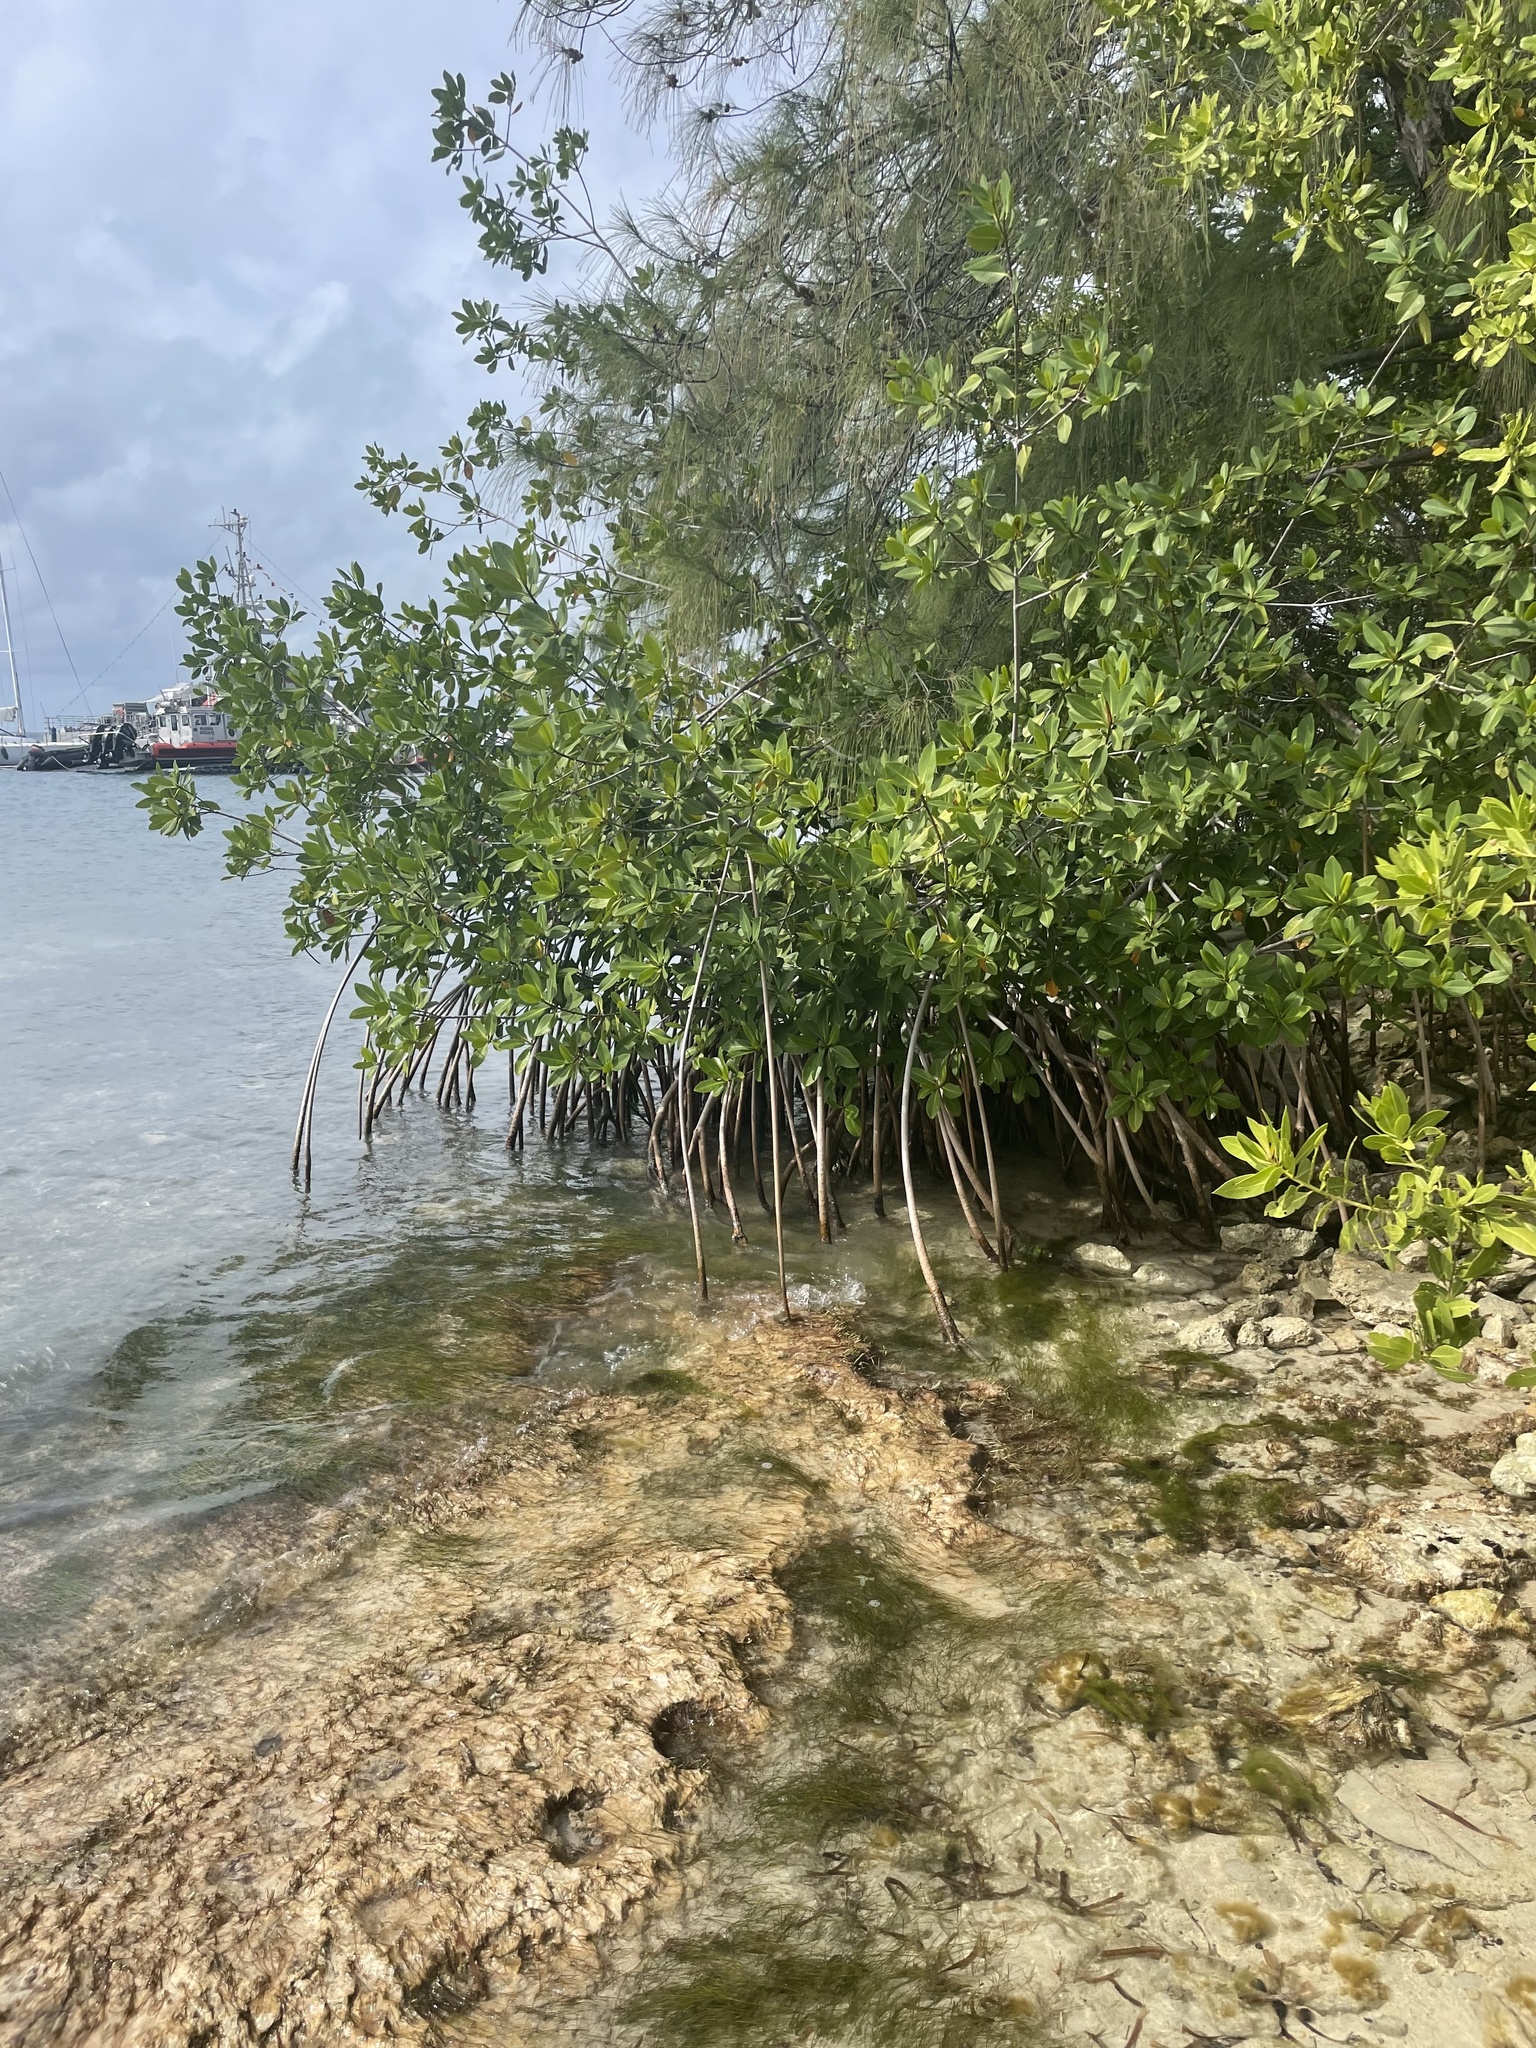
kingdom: Plantae
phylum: Tracheophyta
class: Magnoliopsida
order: Lamiales
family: Lamiaceae
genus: Vitex
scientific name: Vitex trifolia
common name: Simpleleaf chastetree
